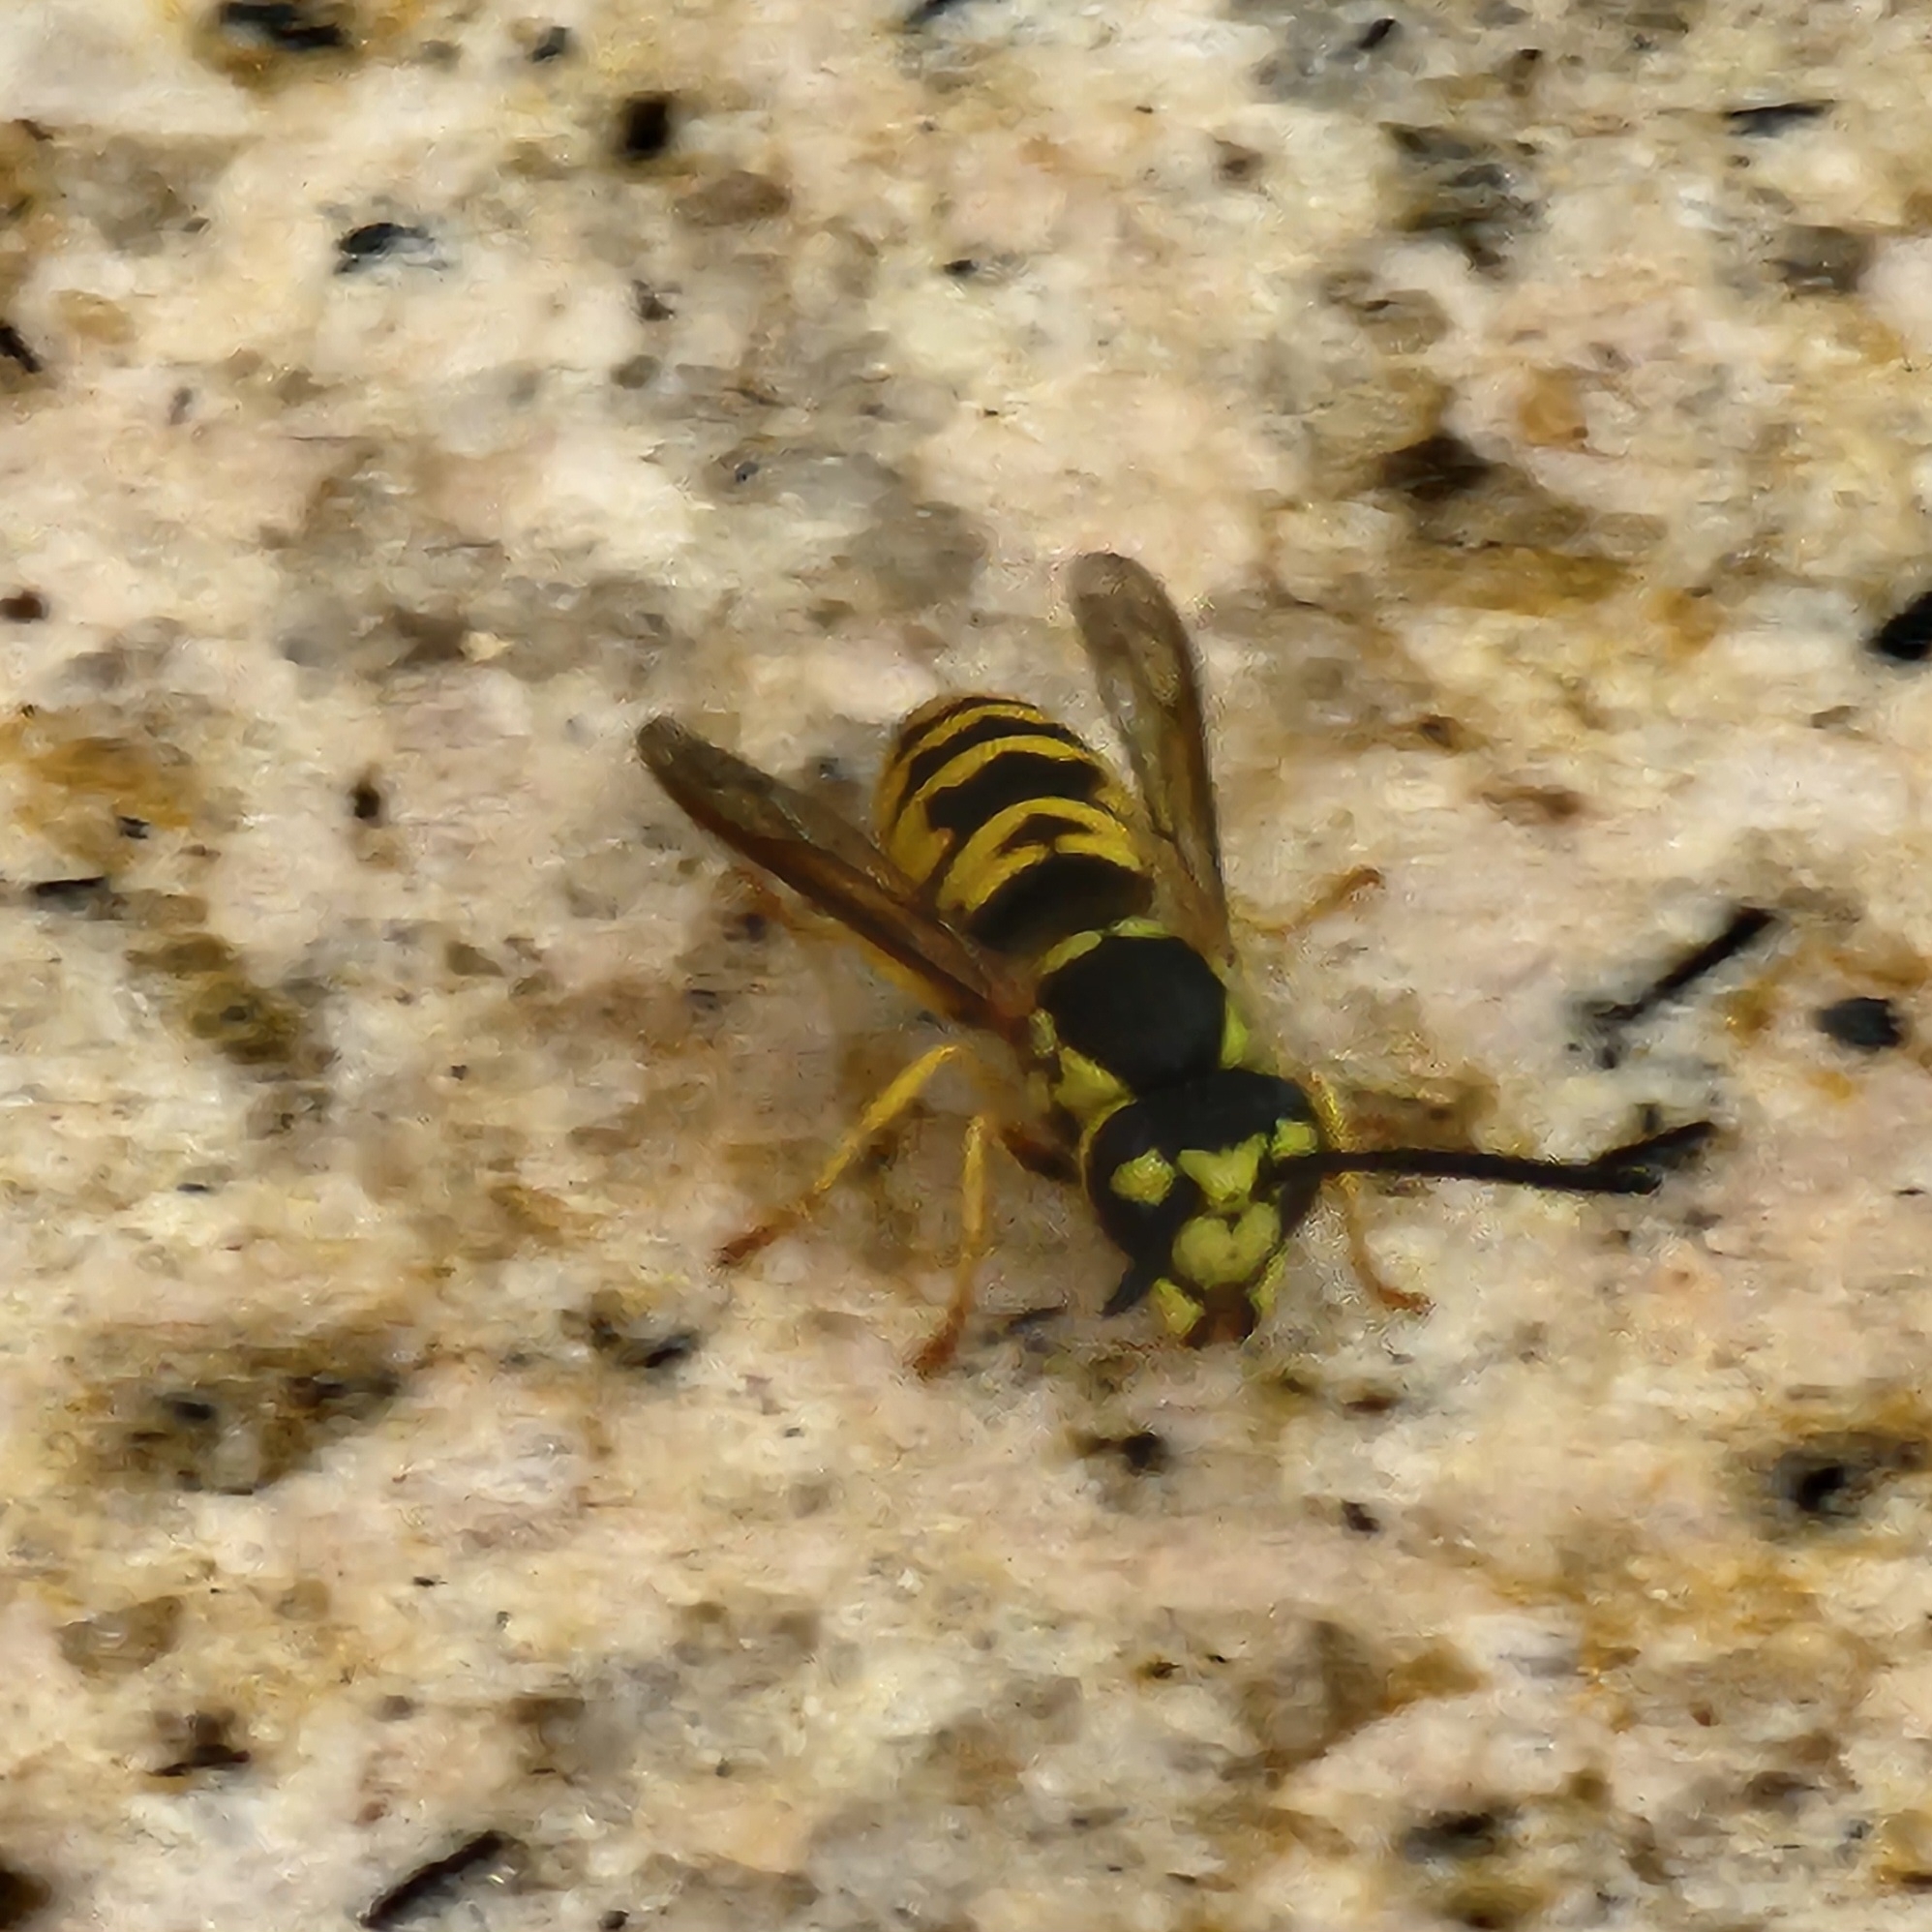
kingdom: Animalia
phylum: Arthropoda
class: Insecta
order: Hymenoptera
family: Vespidae
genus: Vespula
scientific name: Vespula maculifrons
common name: Eastern yellowjacket
